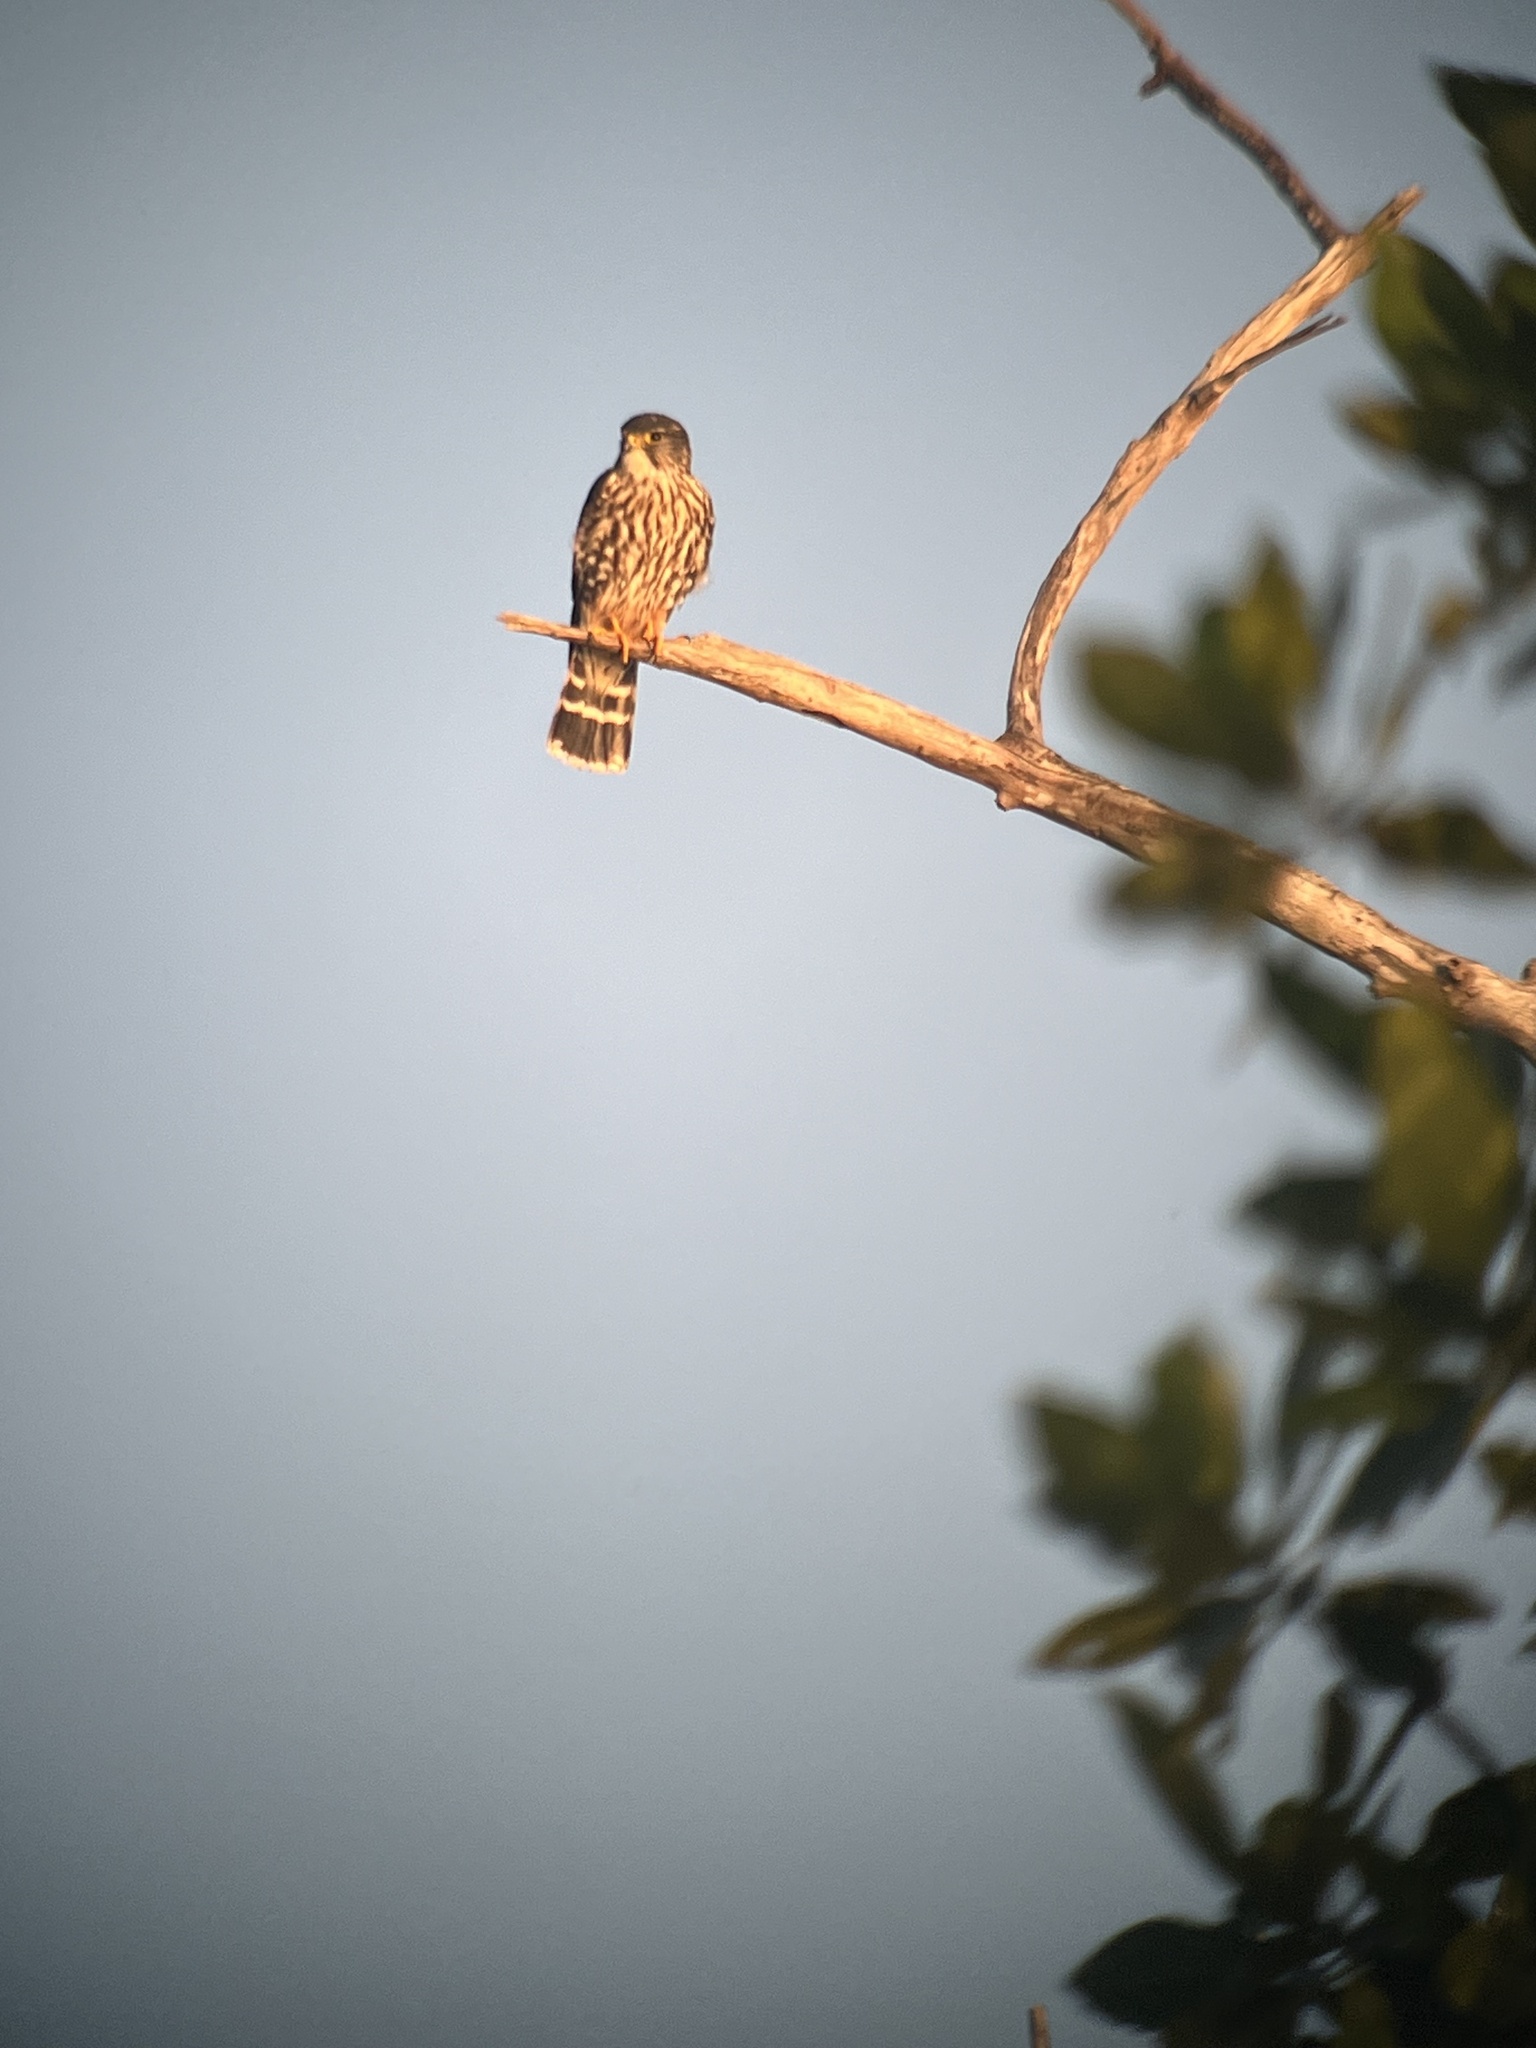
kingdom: Animalia
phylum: Chordata
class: Aves
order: Falconiformes
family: Falconidae
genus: Falco
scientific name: Falco columbarius
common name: Merlin
